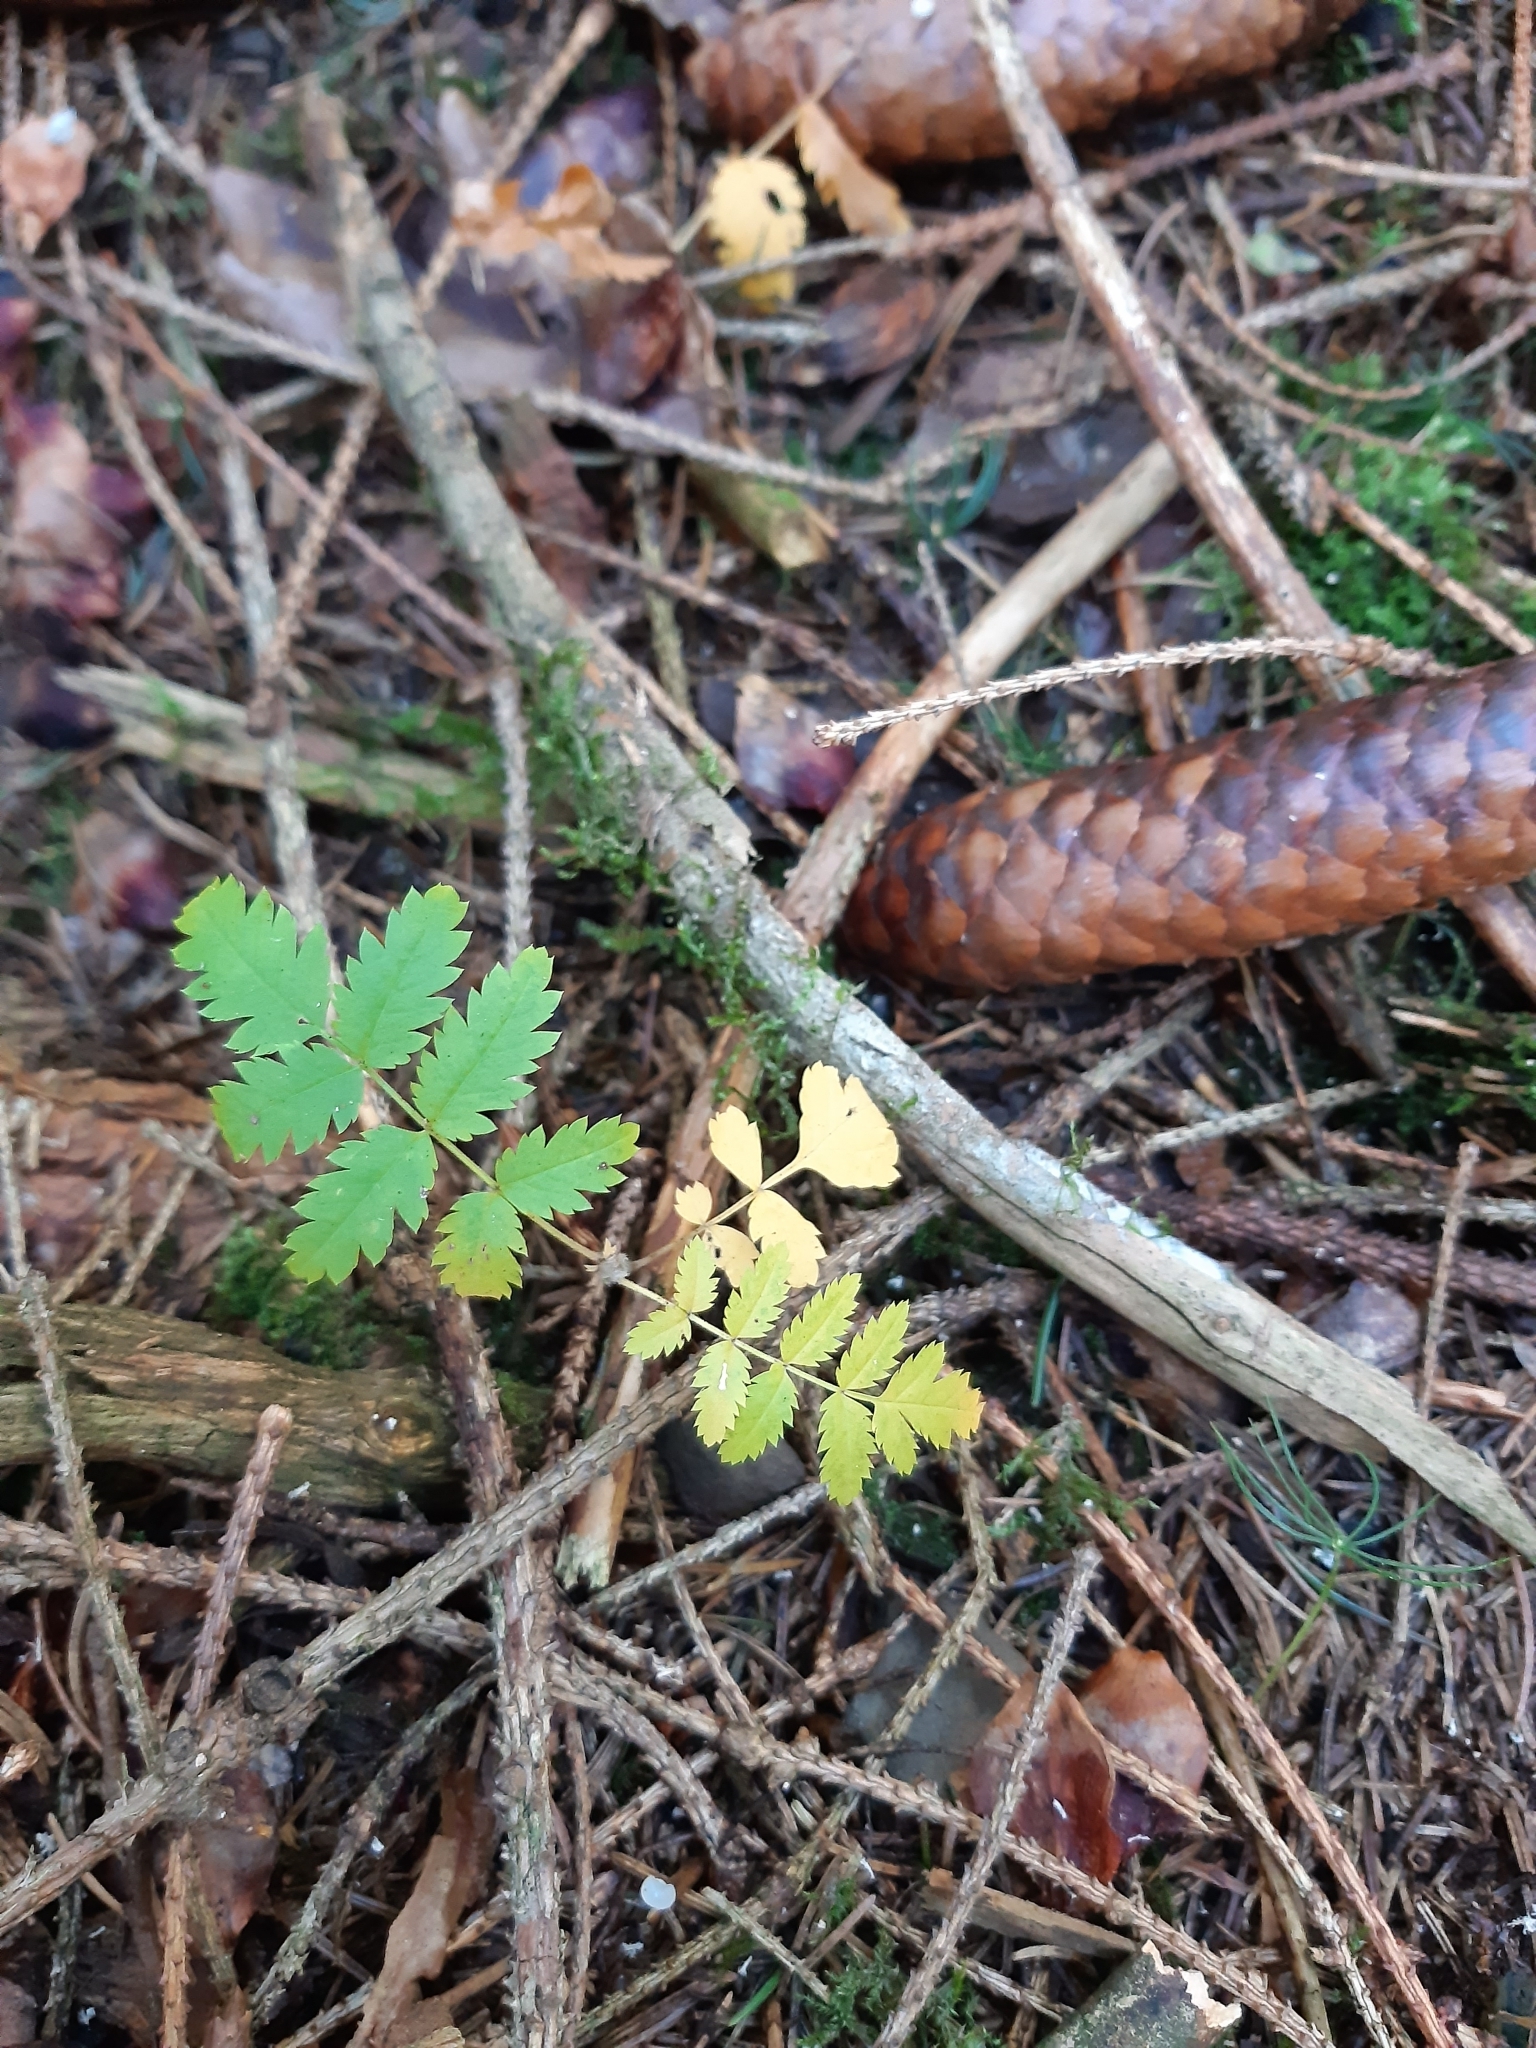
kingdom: Plantae
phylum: Tracheophyta
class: Magnoliopsida
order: Rosales
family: Rosaceae
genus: Sorbus
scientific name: Sorbus aucuparia
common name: Rowan
